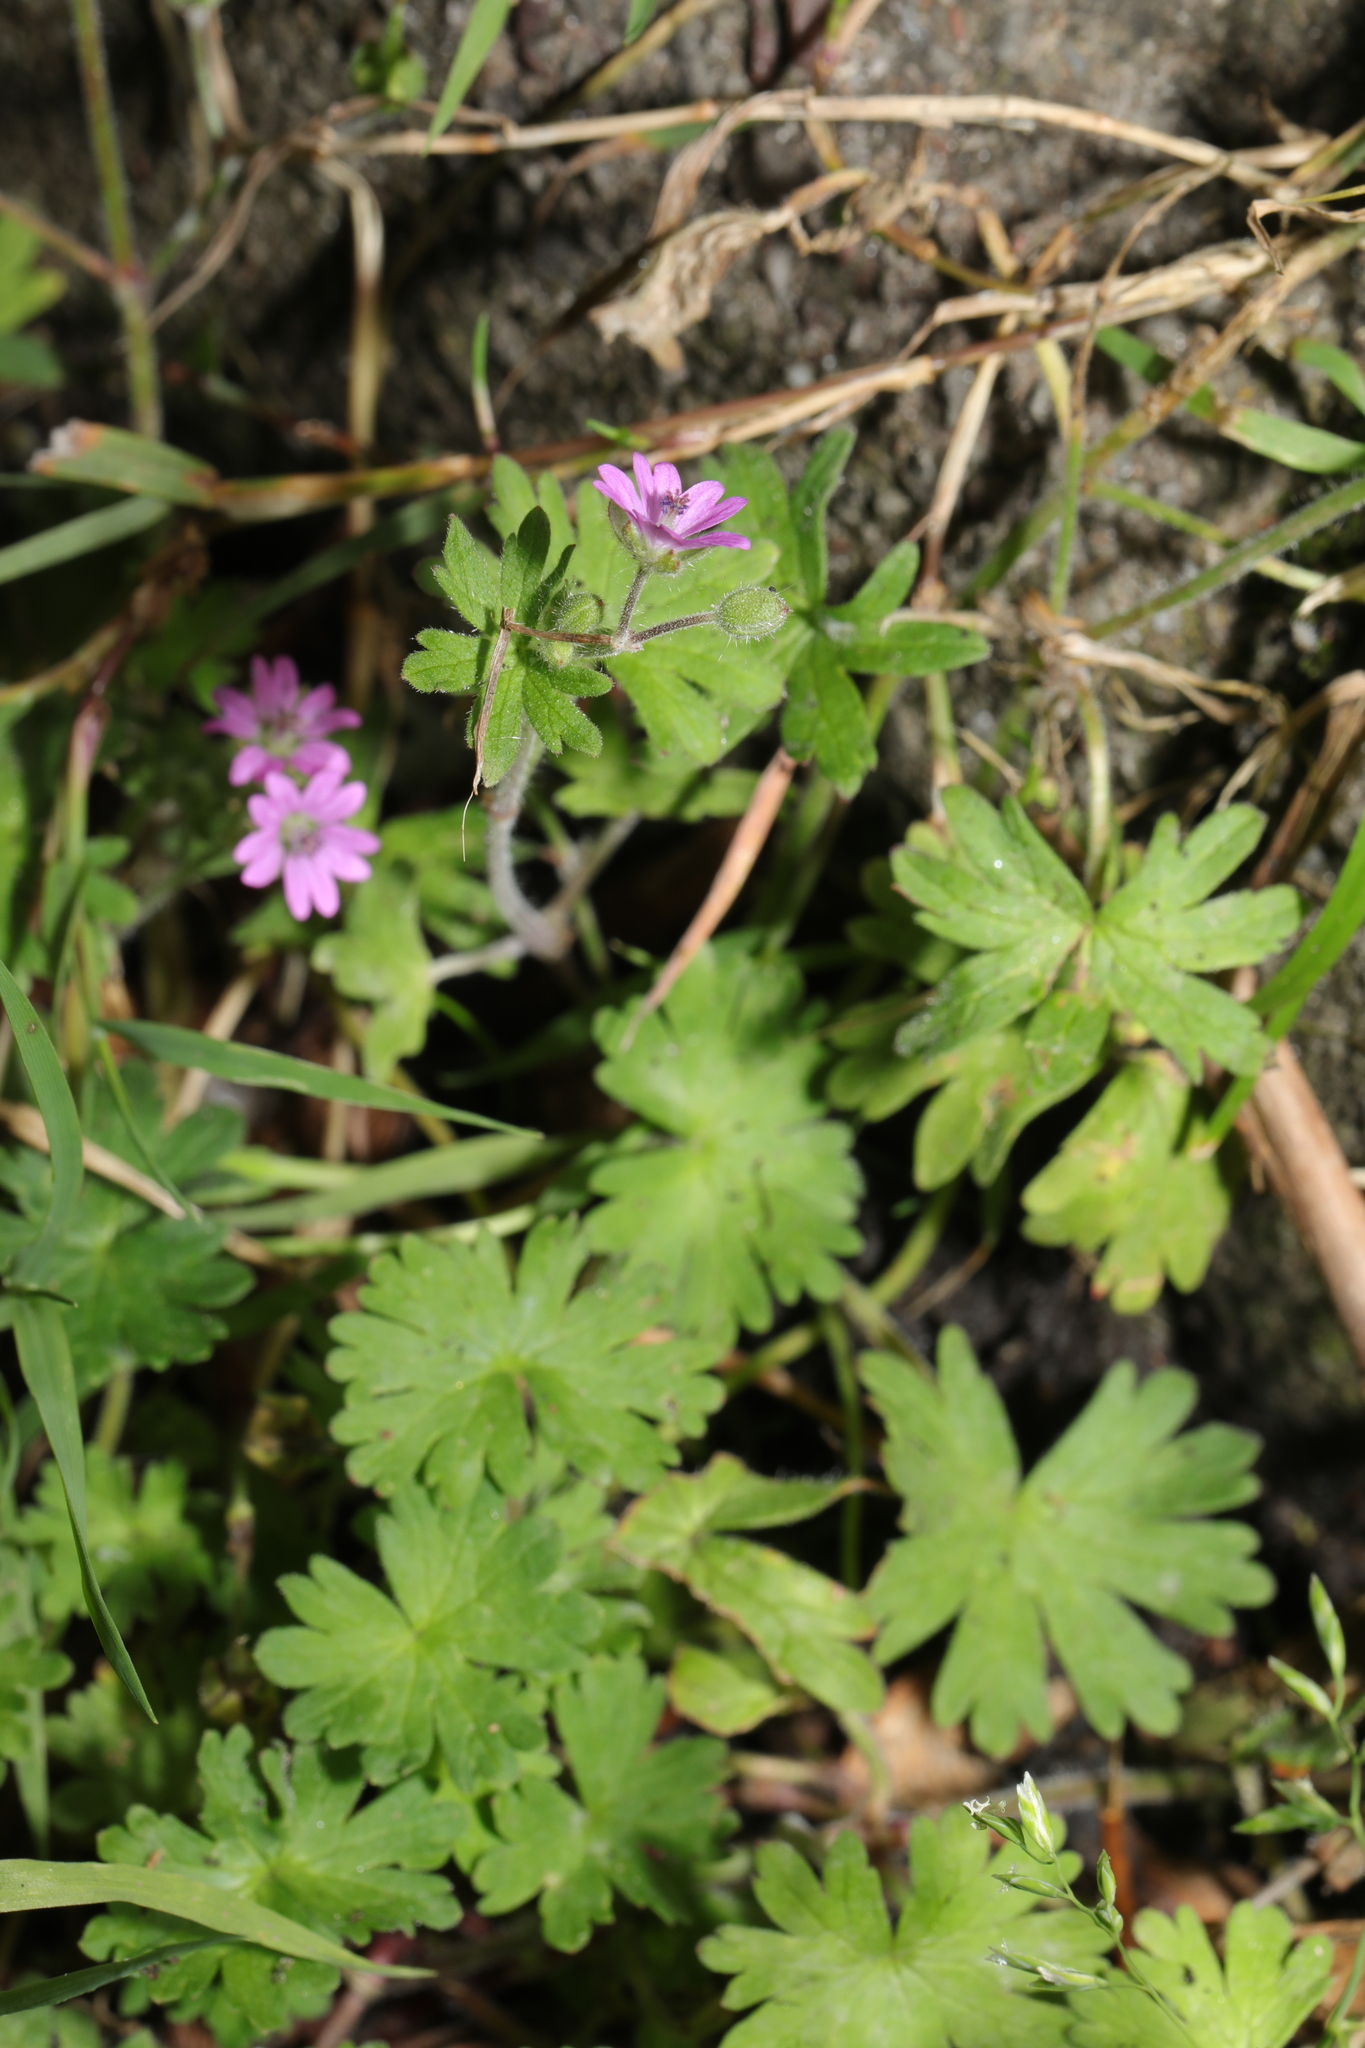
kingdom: Plantae
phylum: Tracheophyta
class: Magnoliopsida
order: Geraniales
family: Geraniaceae
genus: Geranium
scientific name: Geranium molle
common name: Dove's-foot crane's-bill
